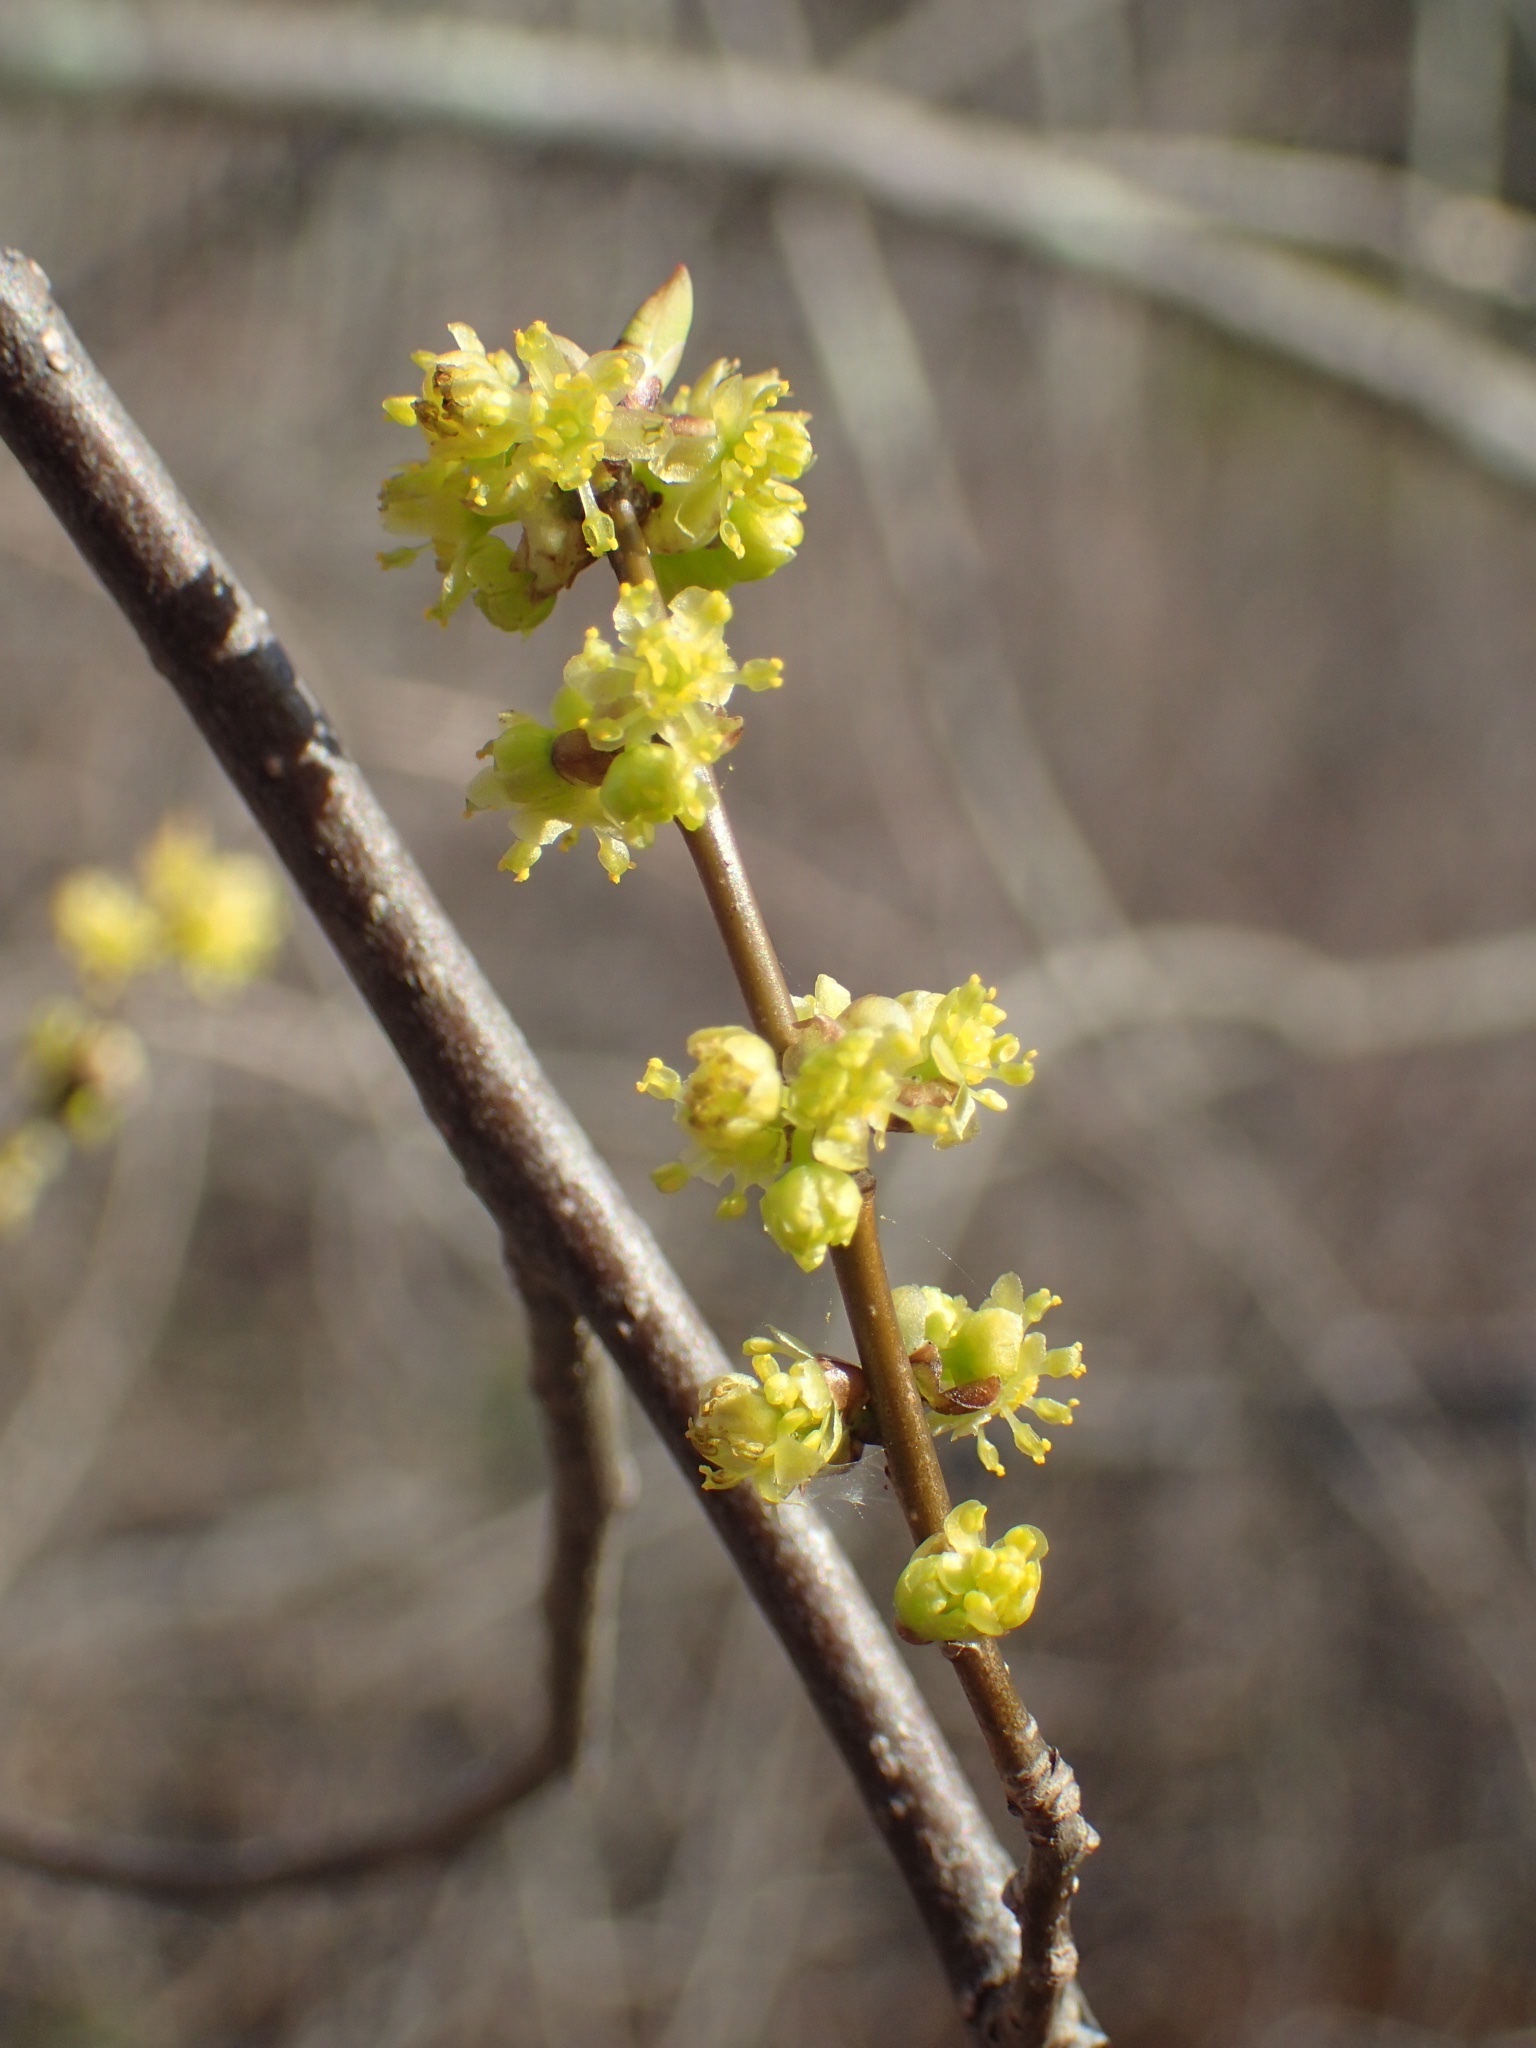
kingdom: Plantae
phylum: Tracheophyta
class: Magnoliopsida
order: Laurales
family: Lauraceae
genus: Lindera
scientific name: Lindera benzoin
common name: Spicebush
